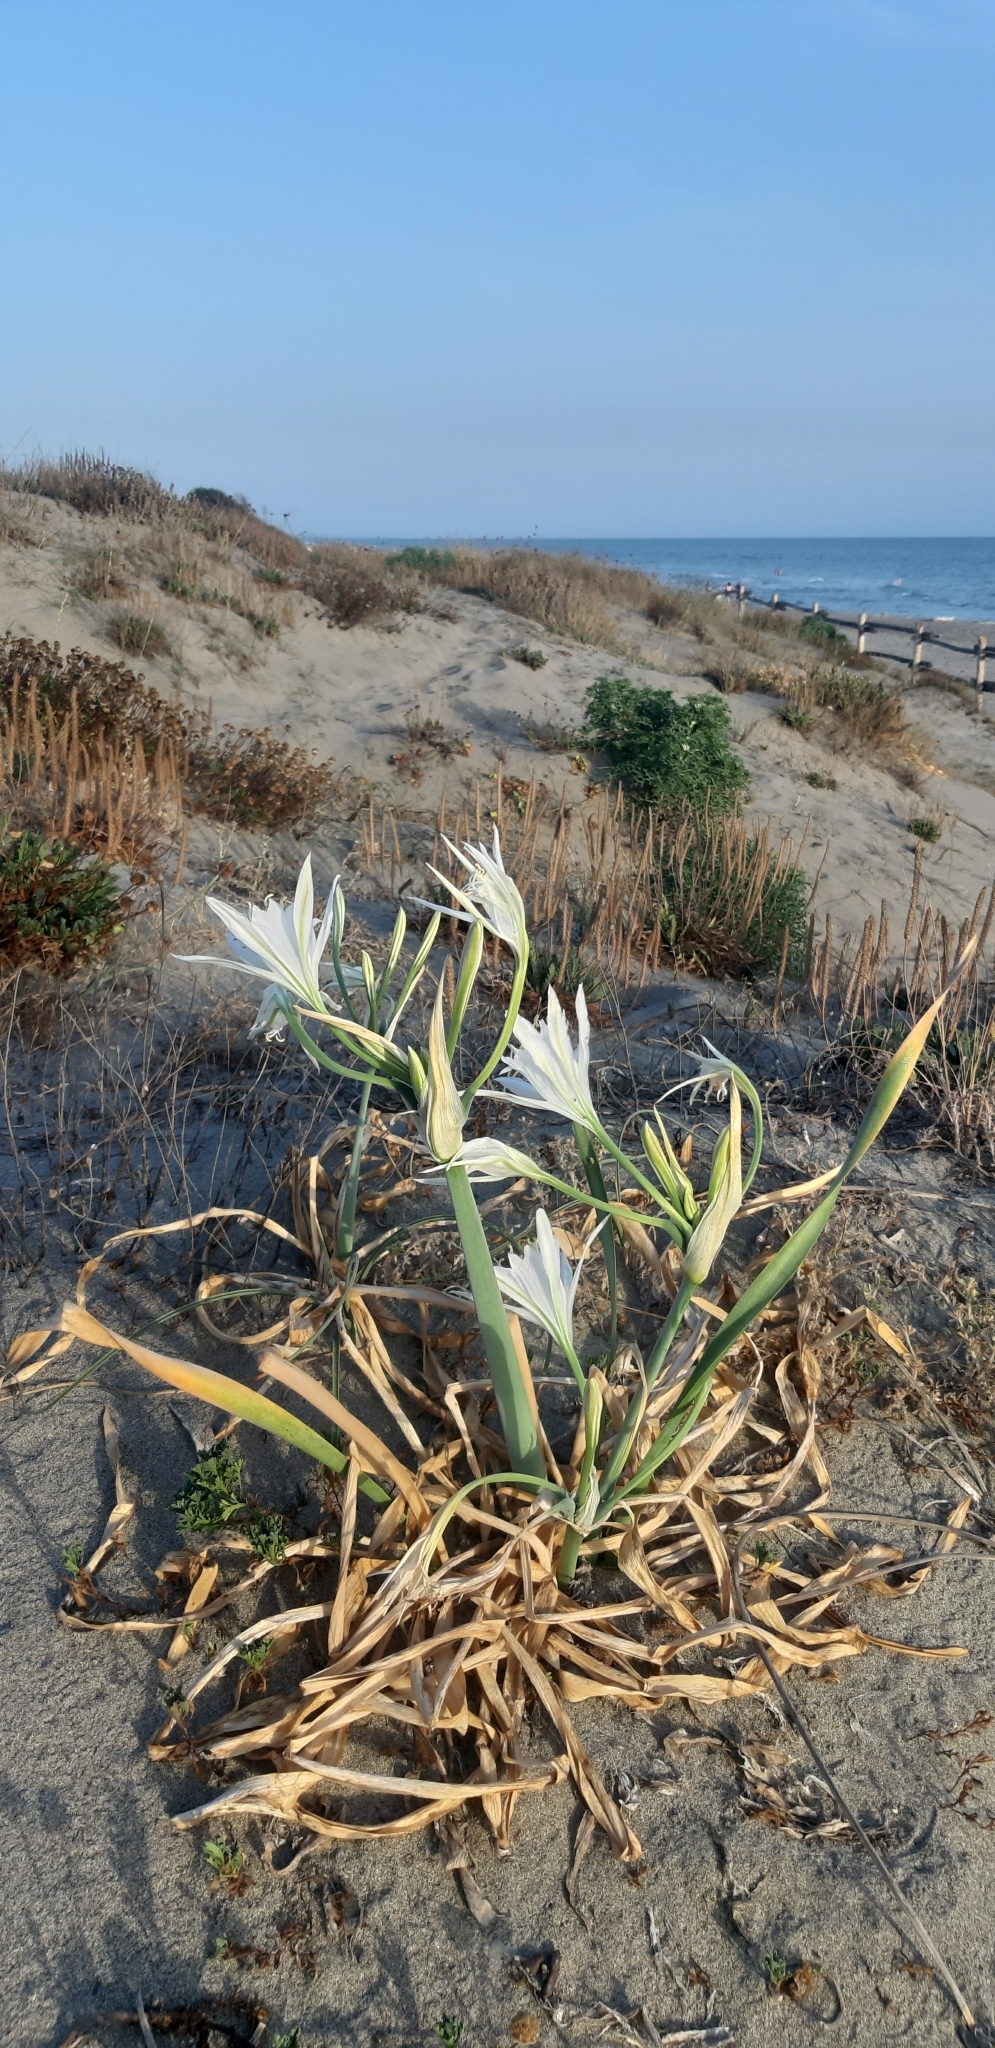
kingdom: Plantae
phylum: Tracheophyta
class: Liliopsida
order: Asparagales
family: Amaryllidaceae
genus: Pancratium
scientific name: Pancratium maritimum
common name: Sea-daffodil
